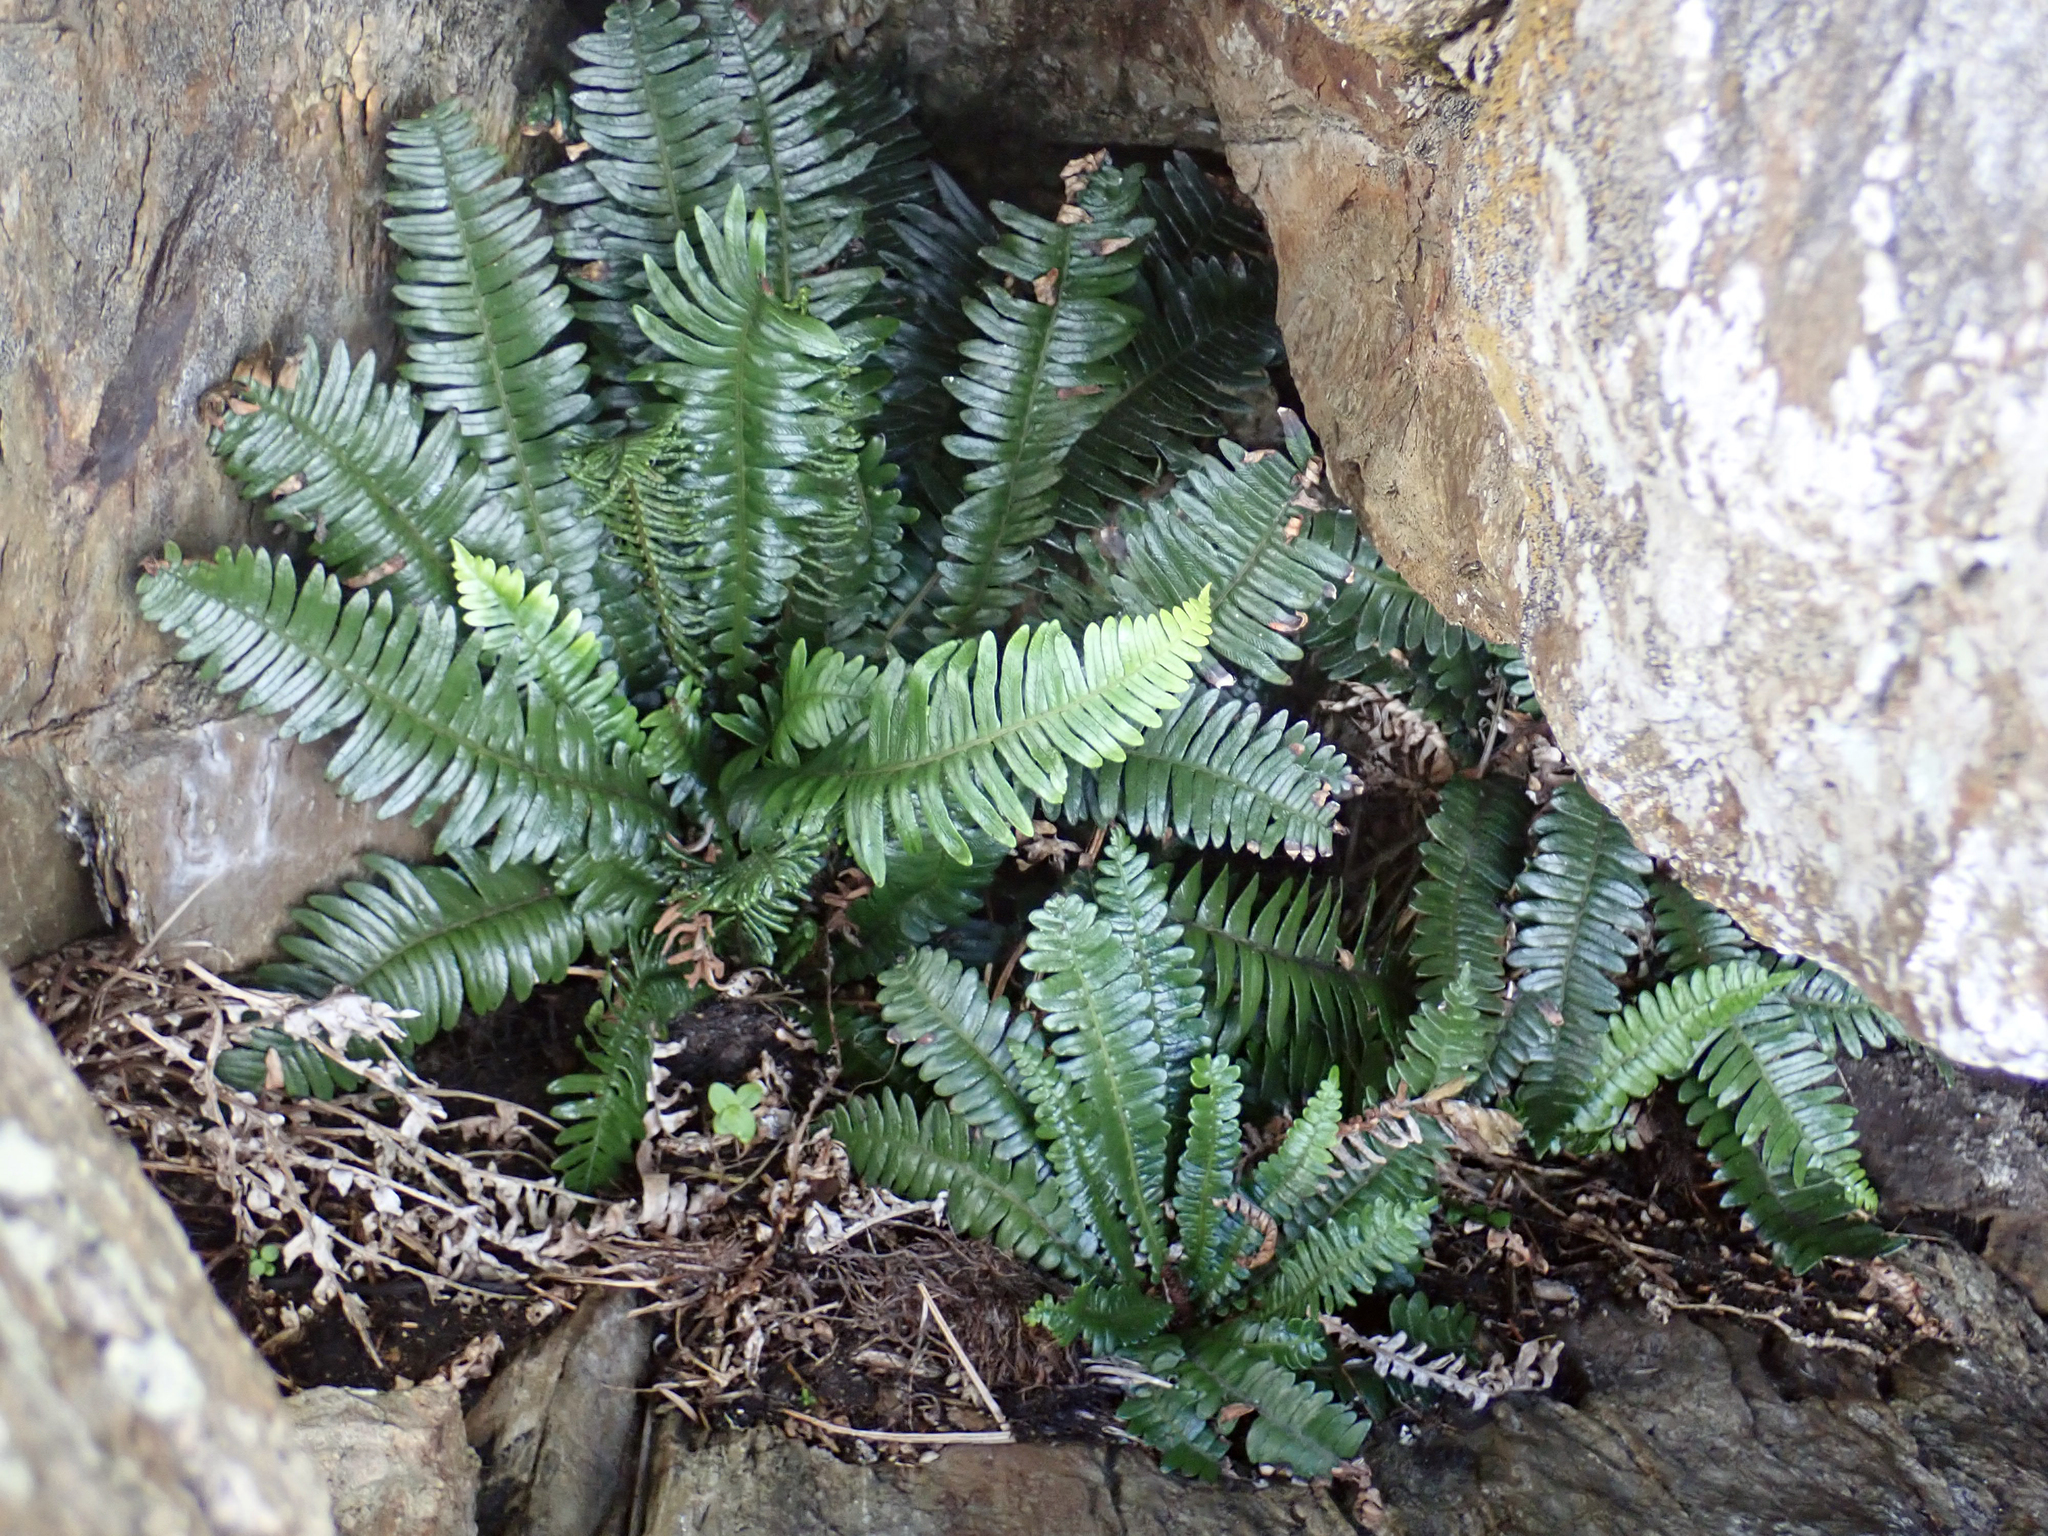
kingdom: Plantae
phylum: Tracheophyta
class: Polypodiopsida
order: Polypodiales
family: Blechnaceae
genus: Austroblechnum
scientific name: Austroblechnum durum
